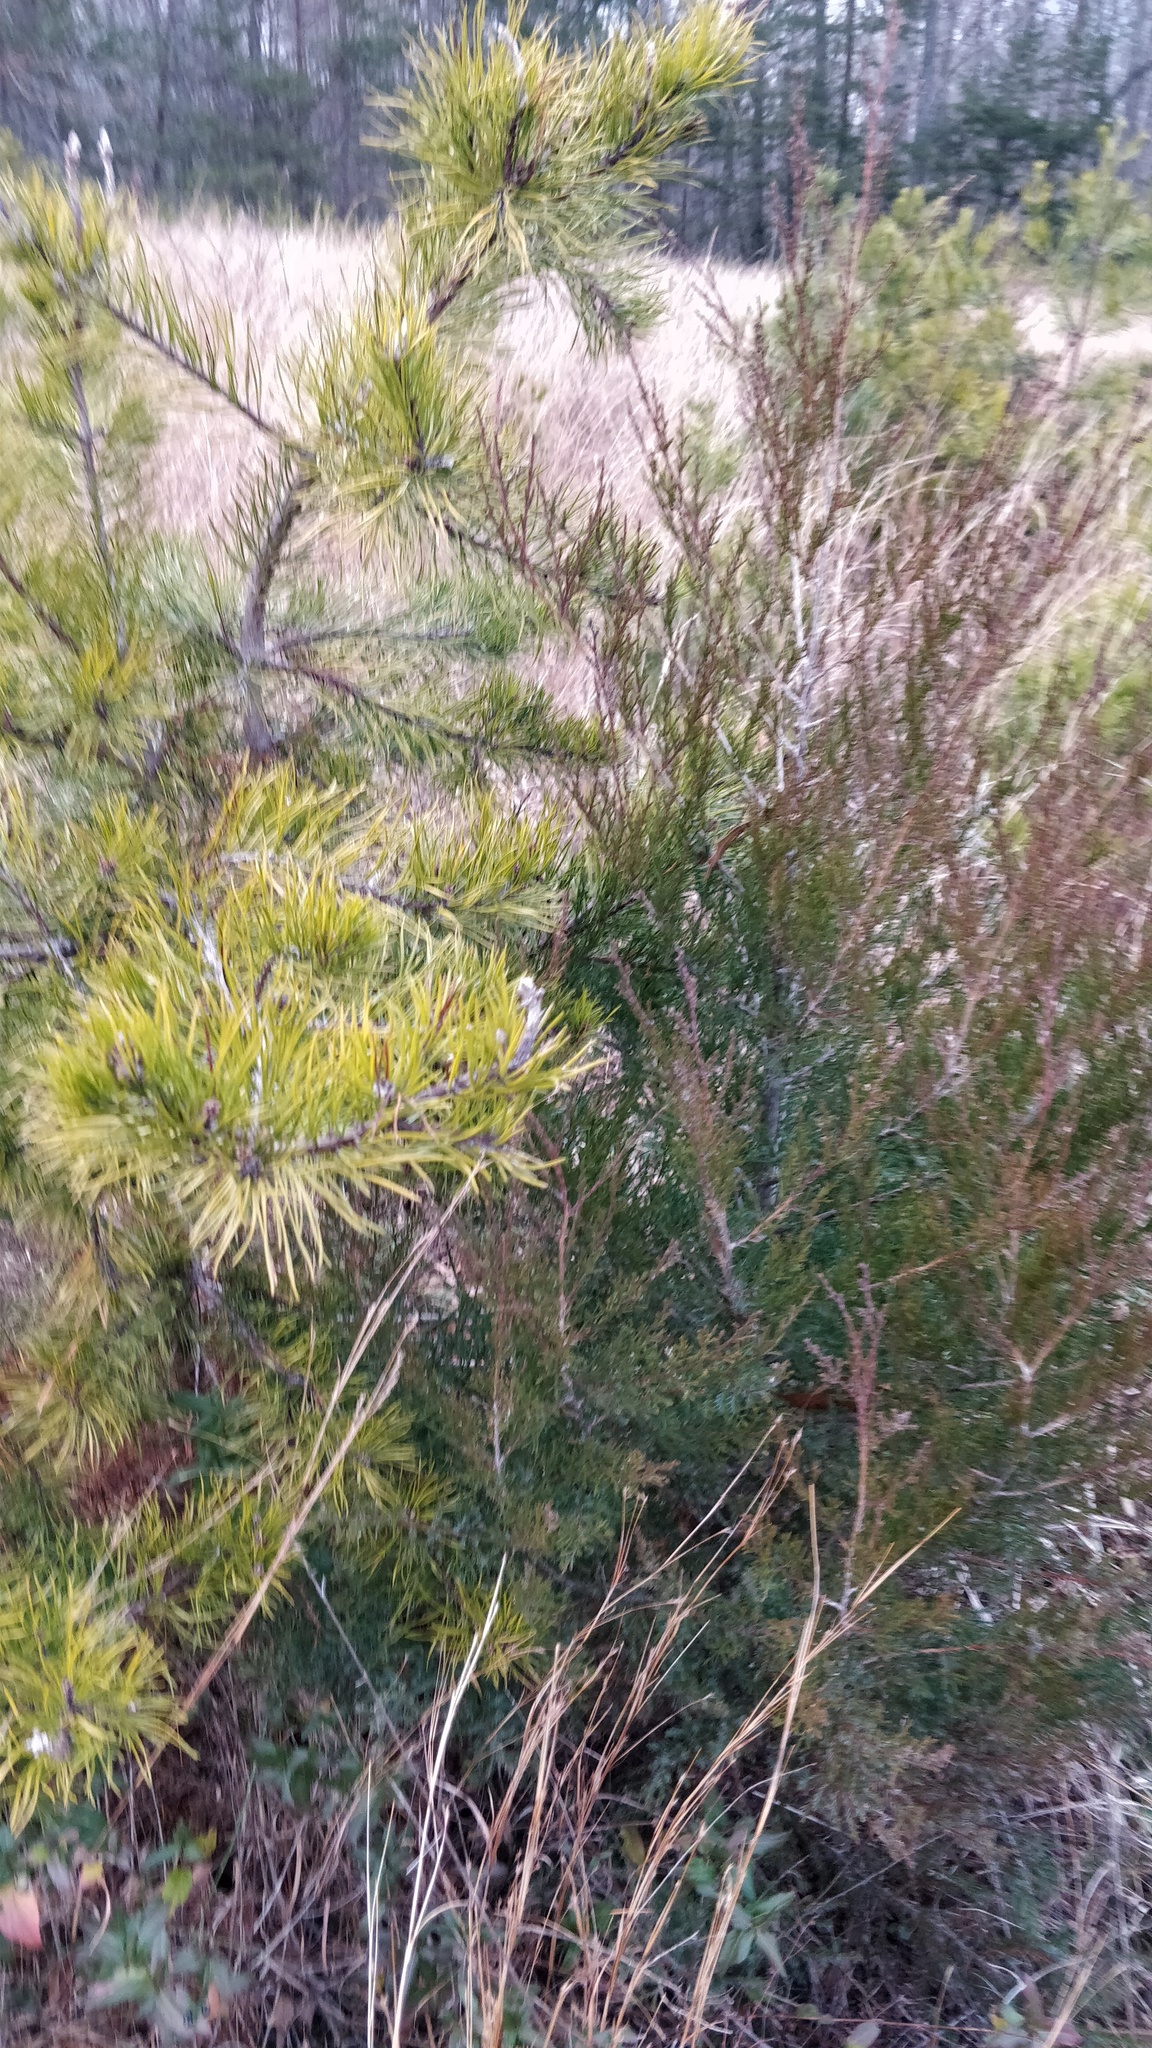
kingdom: Plantae
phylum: Tracheophyta
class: Pinopsida
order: Pinales
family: Cupressaceae
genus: Juniperus
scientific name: Juniperus virginiana
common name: Red juniper
